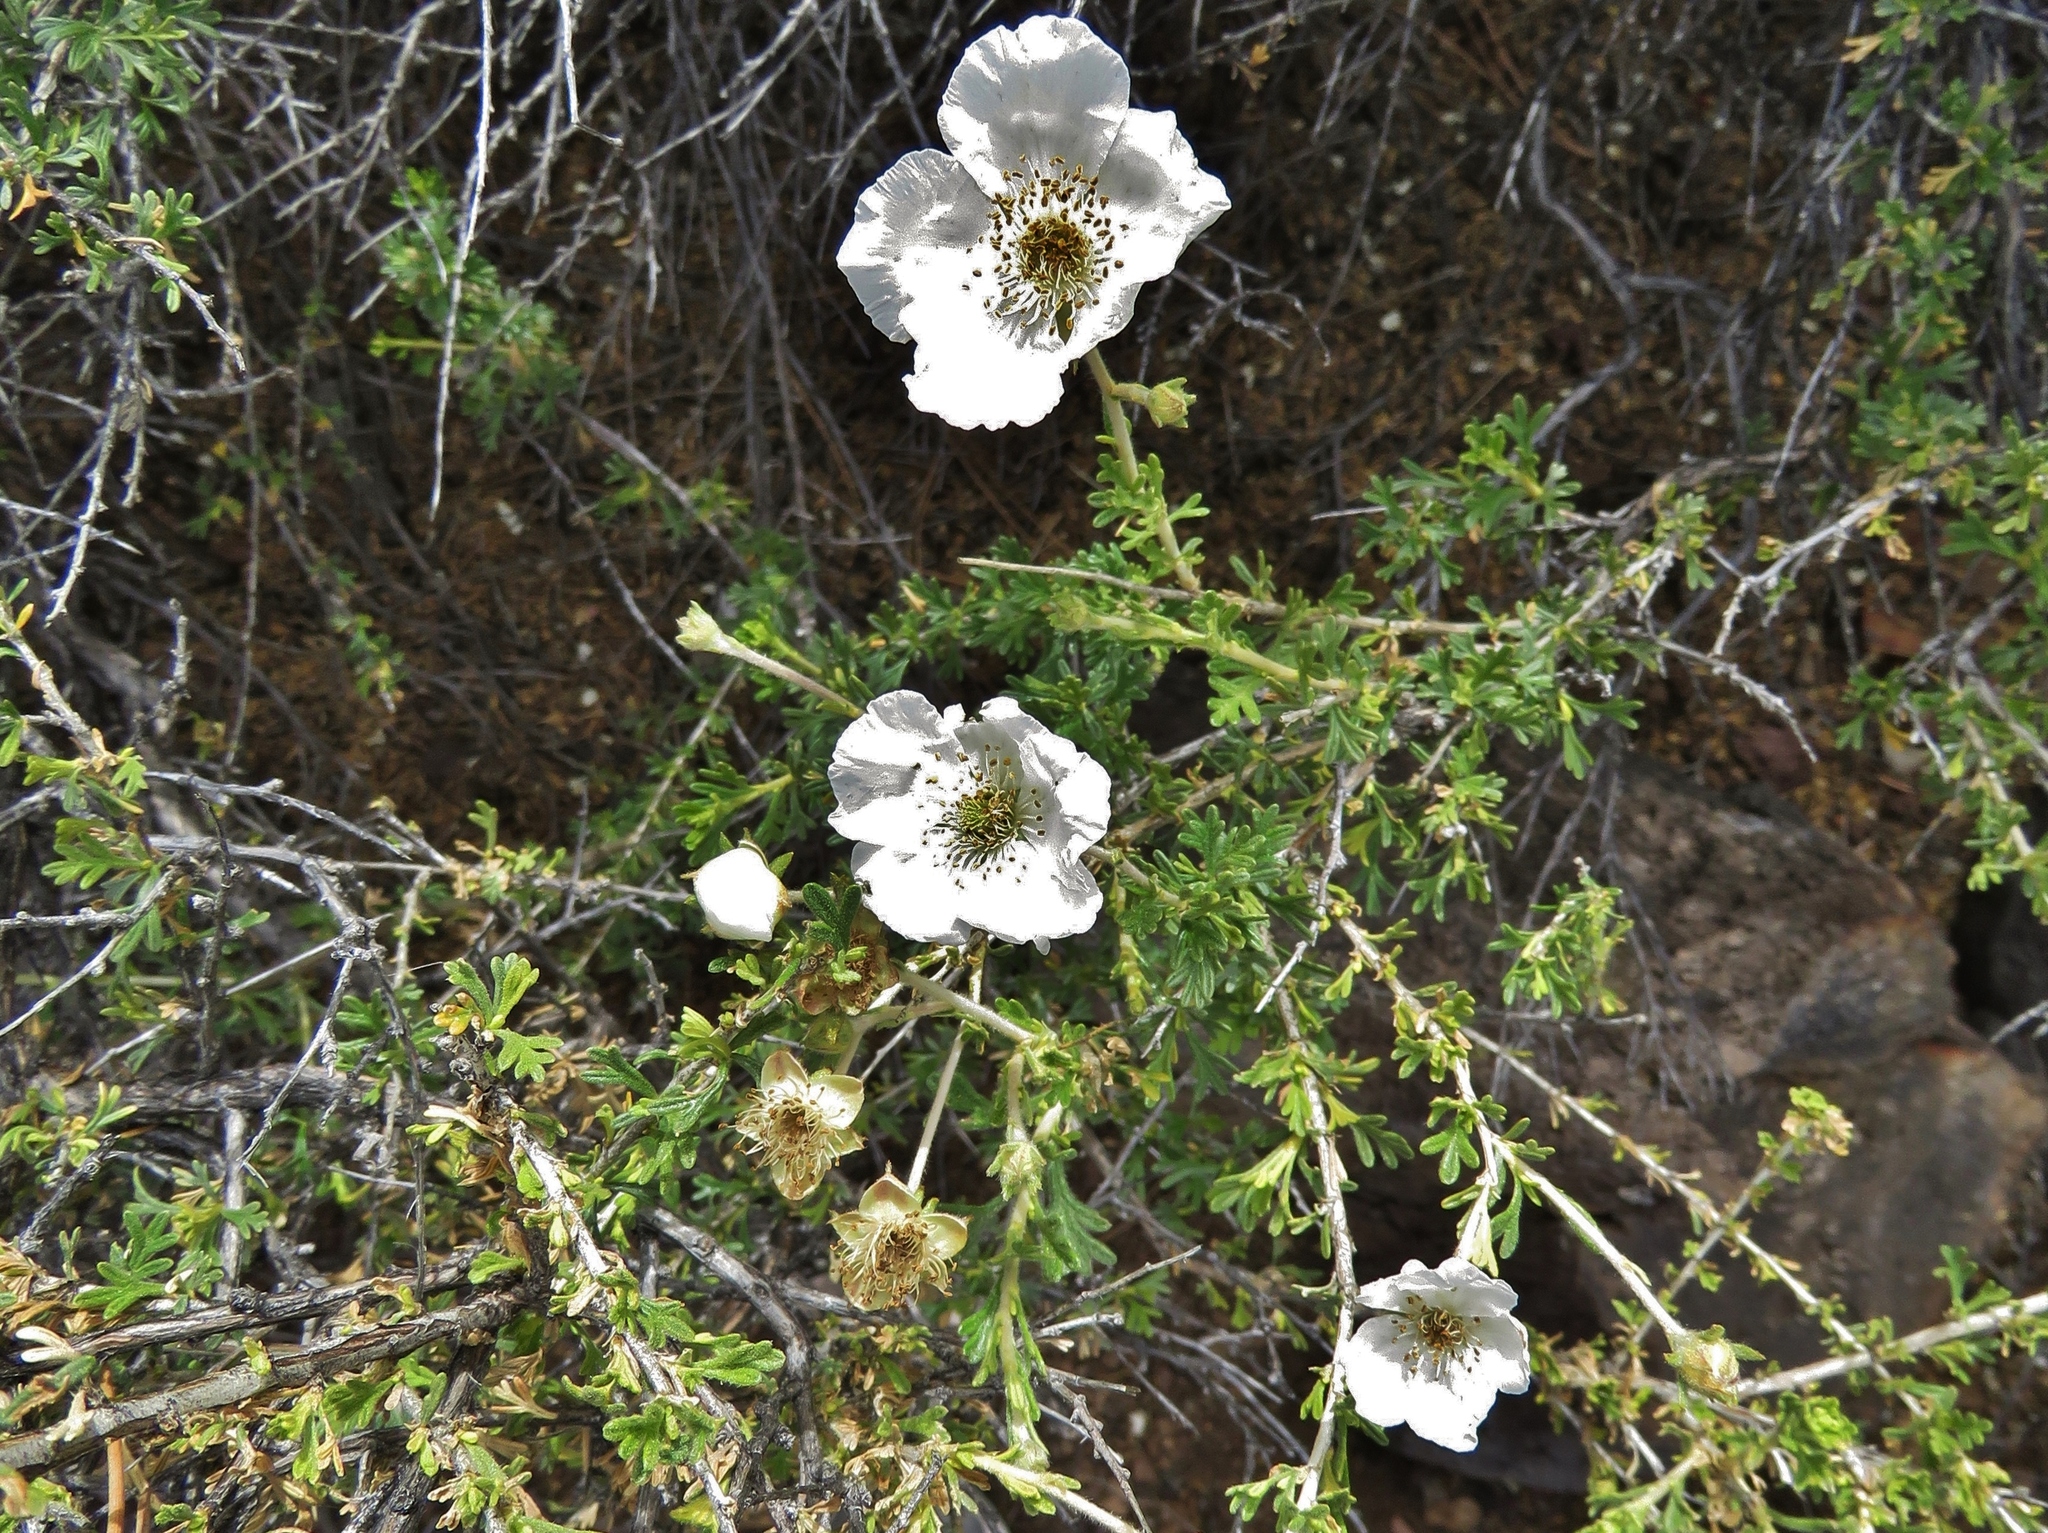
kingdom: Plantae
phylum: Tracheophyta
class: Magnoliopsida
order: Rosales
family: Rosaceae
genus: Fallugia
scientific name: Fallugia paradoxa
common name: Apache-plume
